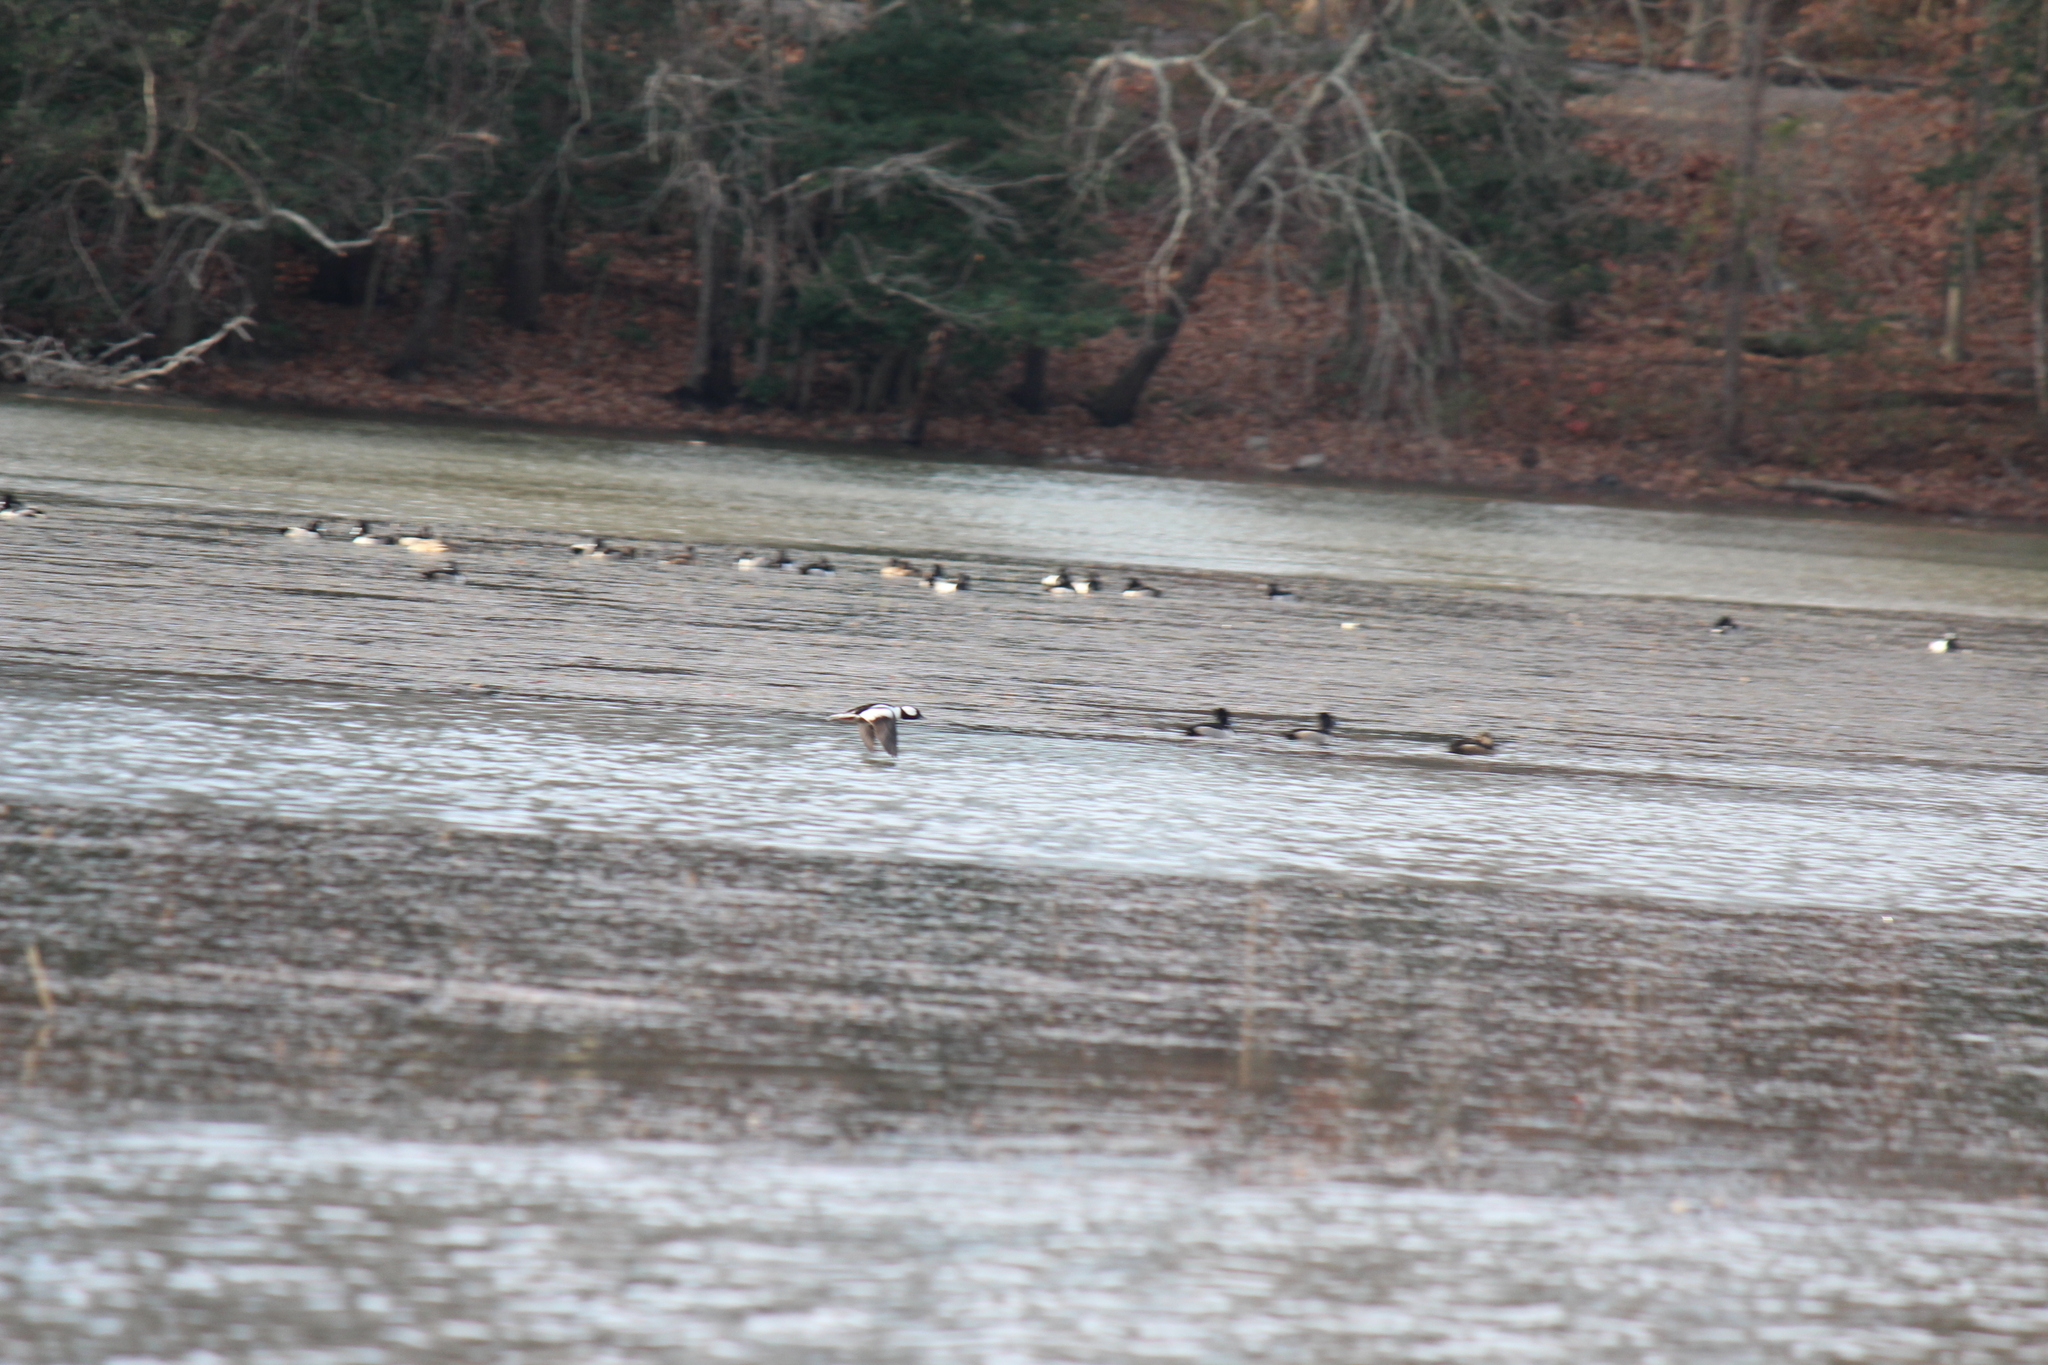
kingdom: Animalia
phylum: Chordata
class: Aves
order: Anseriformes
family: Anatidae
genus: Bucephala
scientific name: Bucephala albeola
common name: Bufflehead
